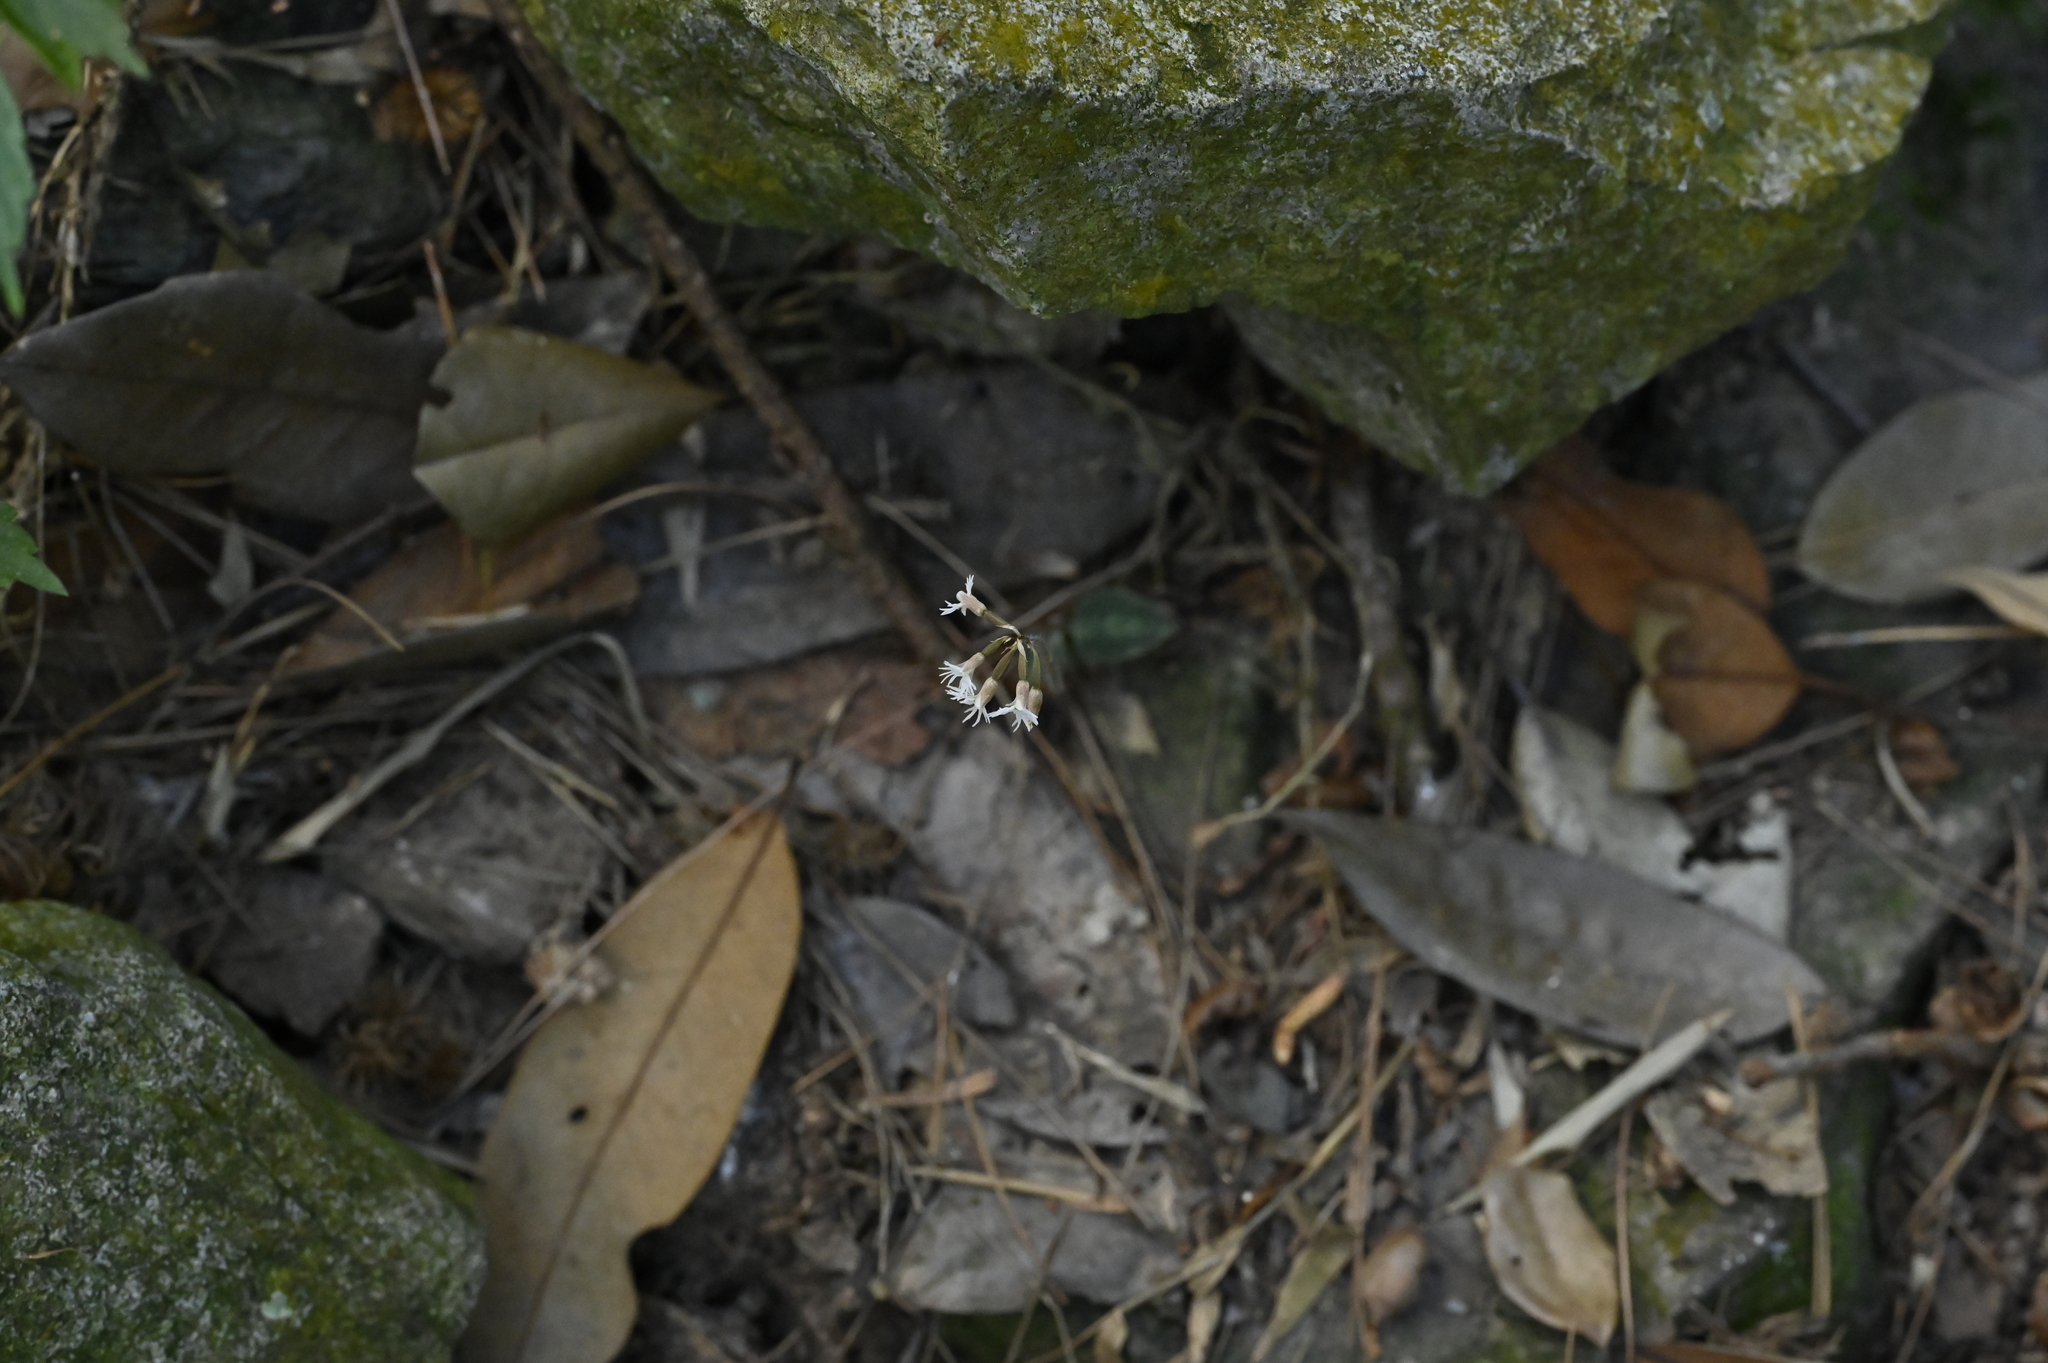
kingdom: Plantae
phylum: Tracheophyta
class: Liliopsida
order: Asparagales
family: Orchidaceae
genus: Cheirostylis
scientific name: Cheirostylis cochinchinensis
